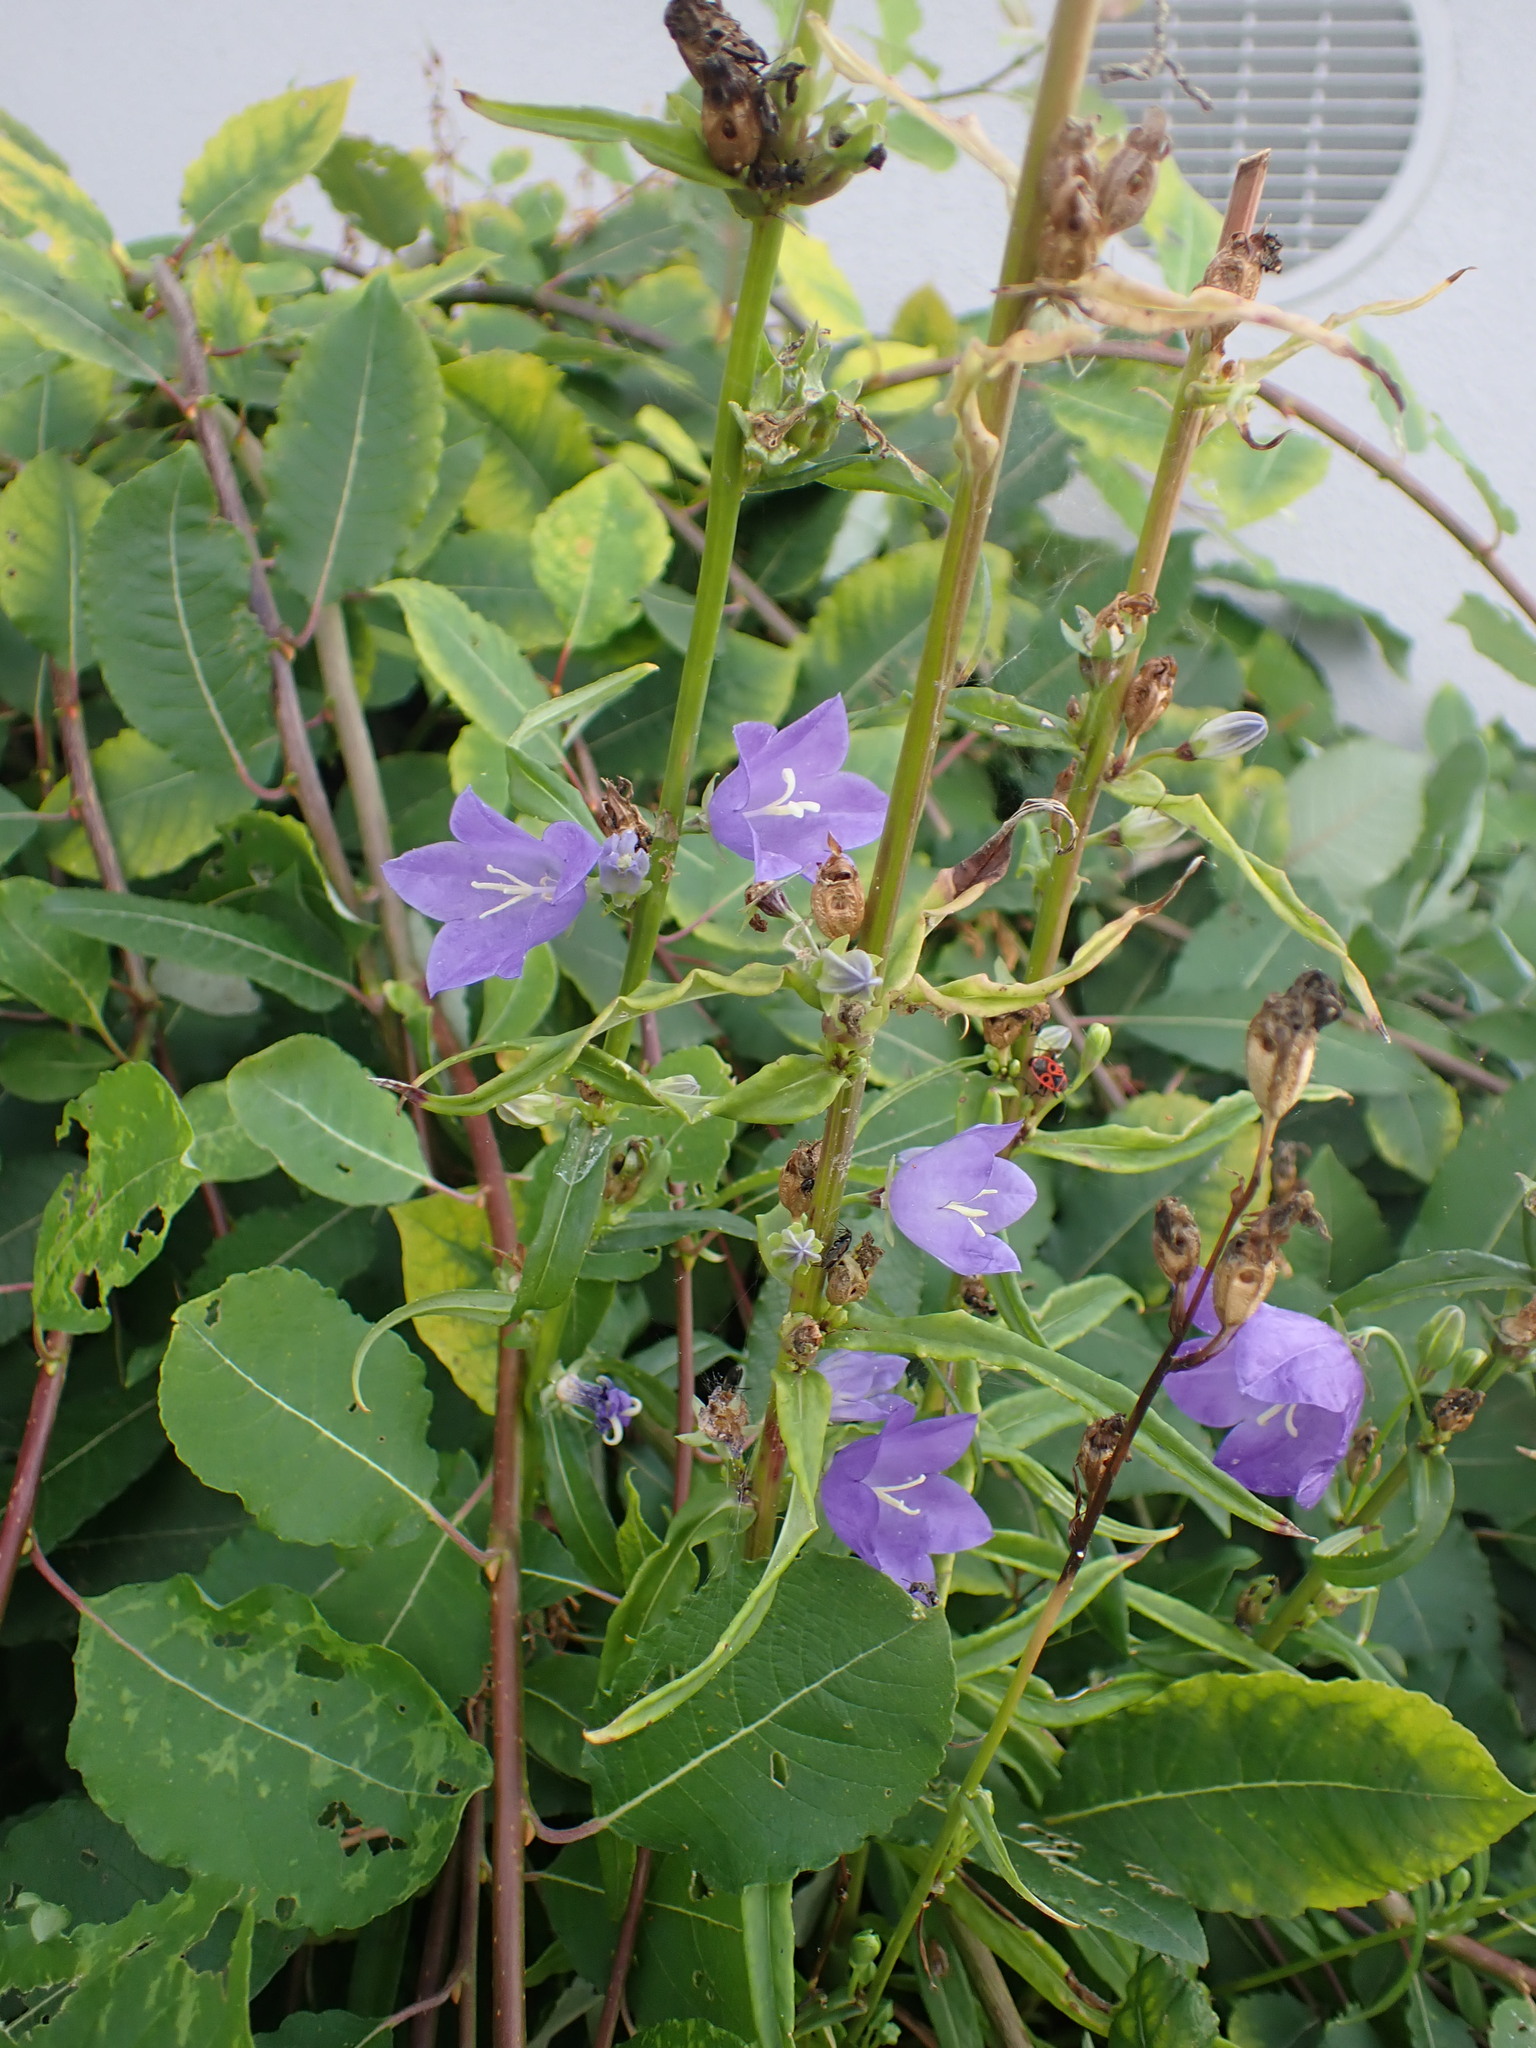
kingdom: Plantae
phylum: Tracheophyta
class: Magnoliopsida
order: Asterales
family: Campanulaceae
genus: Campanula
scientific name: Campanula persicifolia
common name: Peach-leaved bellflower
